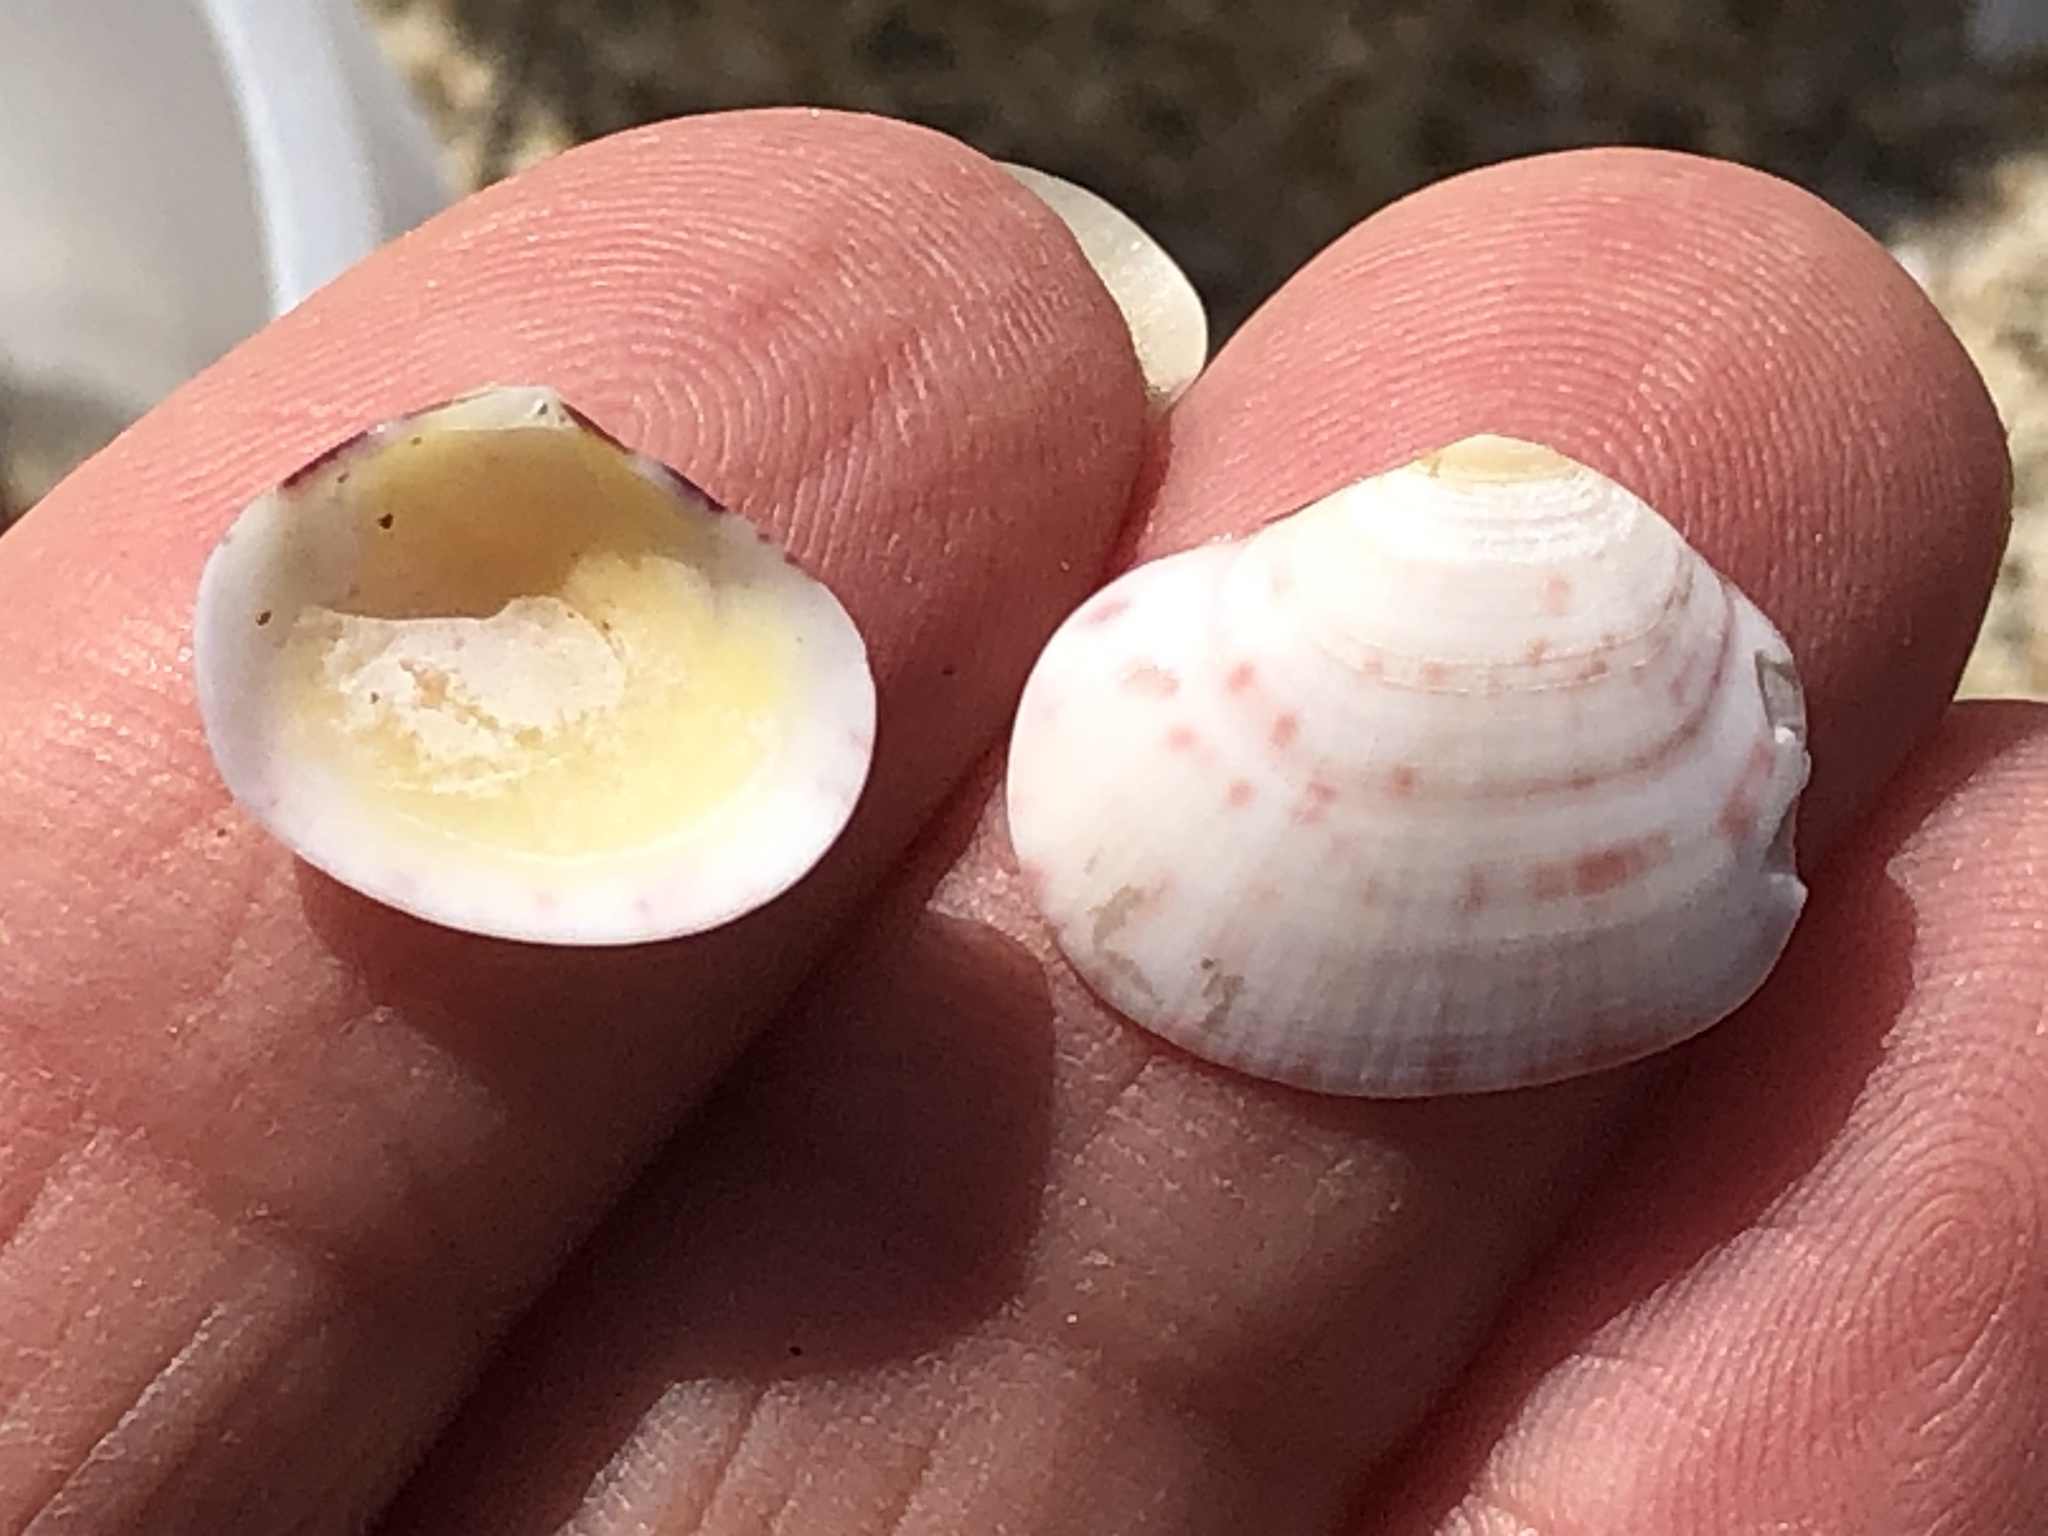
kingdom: Animalia
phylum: Mollusca
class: Bivalvia
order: Cardiida
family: Semelidae
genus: Semele
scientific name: Semele rubropicta
